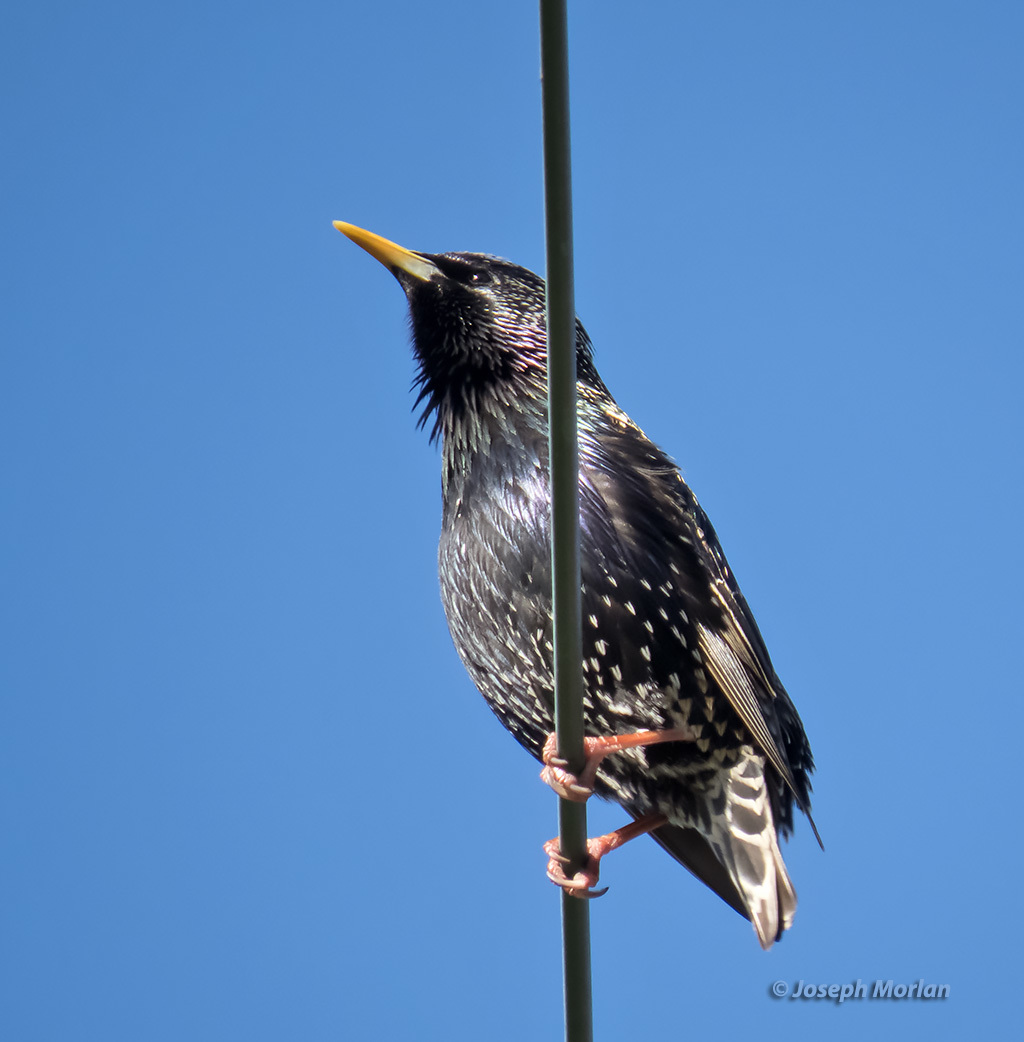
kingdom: Animalia
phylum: Chordata
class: Aves
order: Passeriformes
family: Sturnidae
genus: Sturnus
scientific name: Sturnus vulgaris
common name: Common starling
